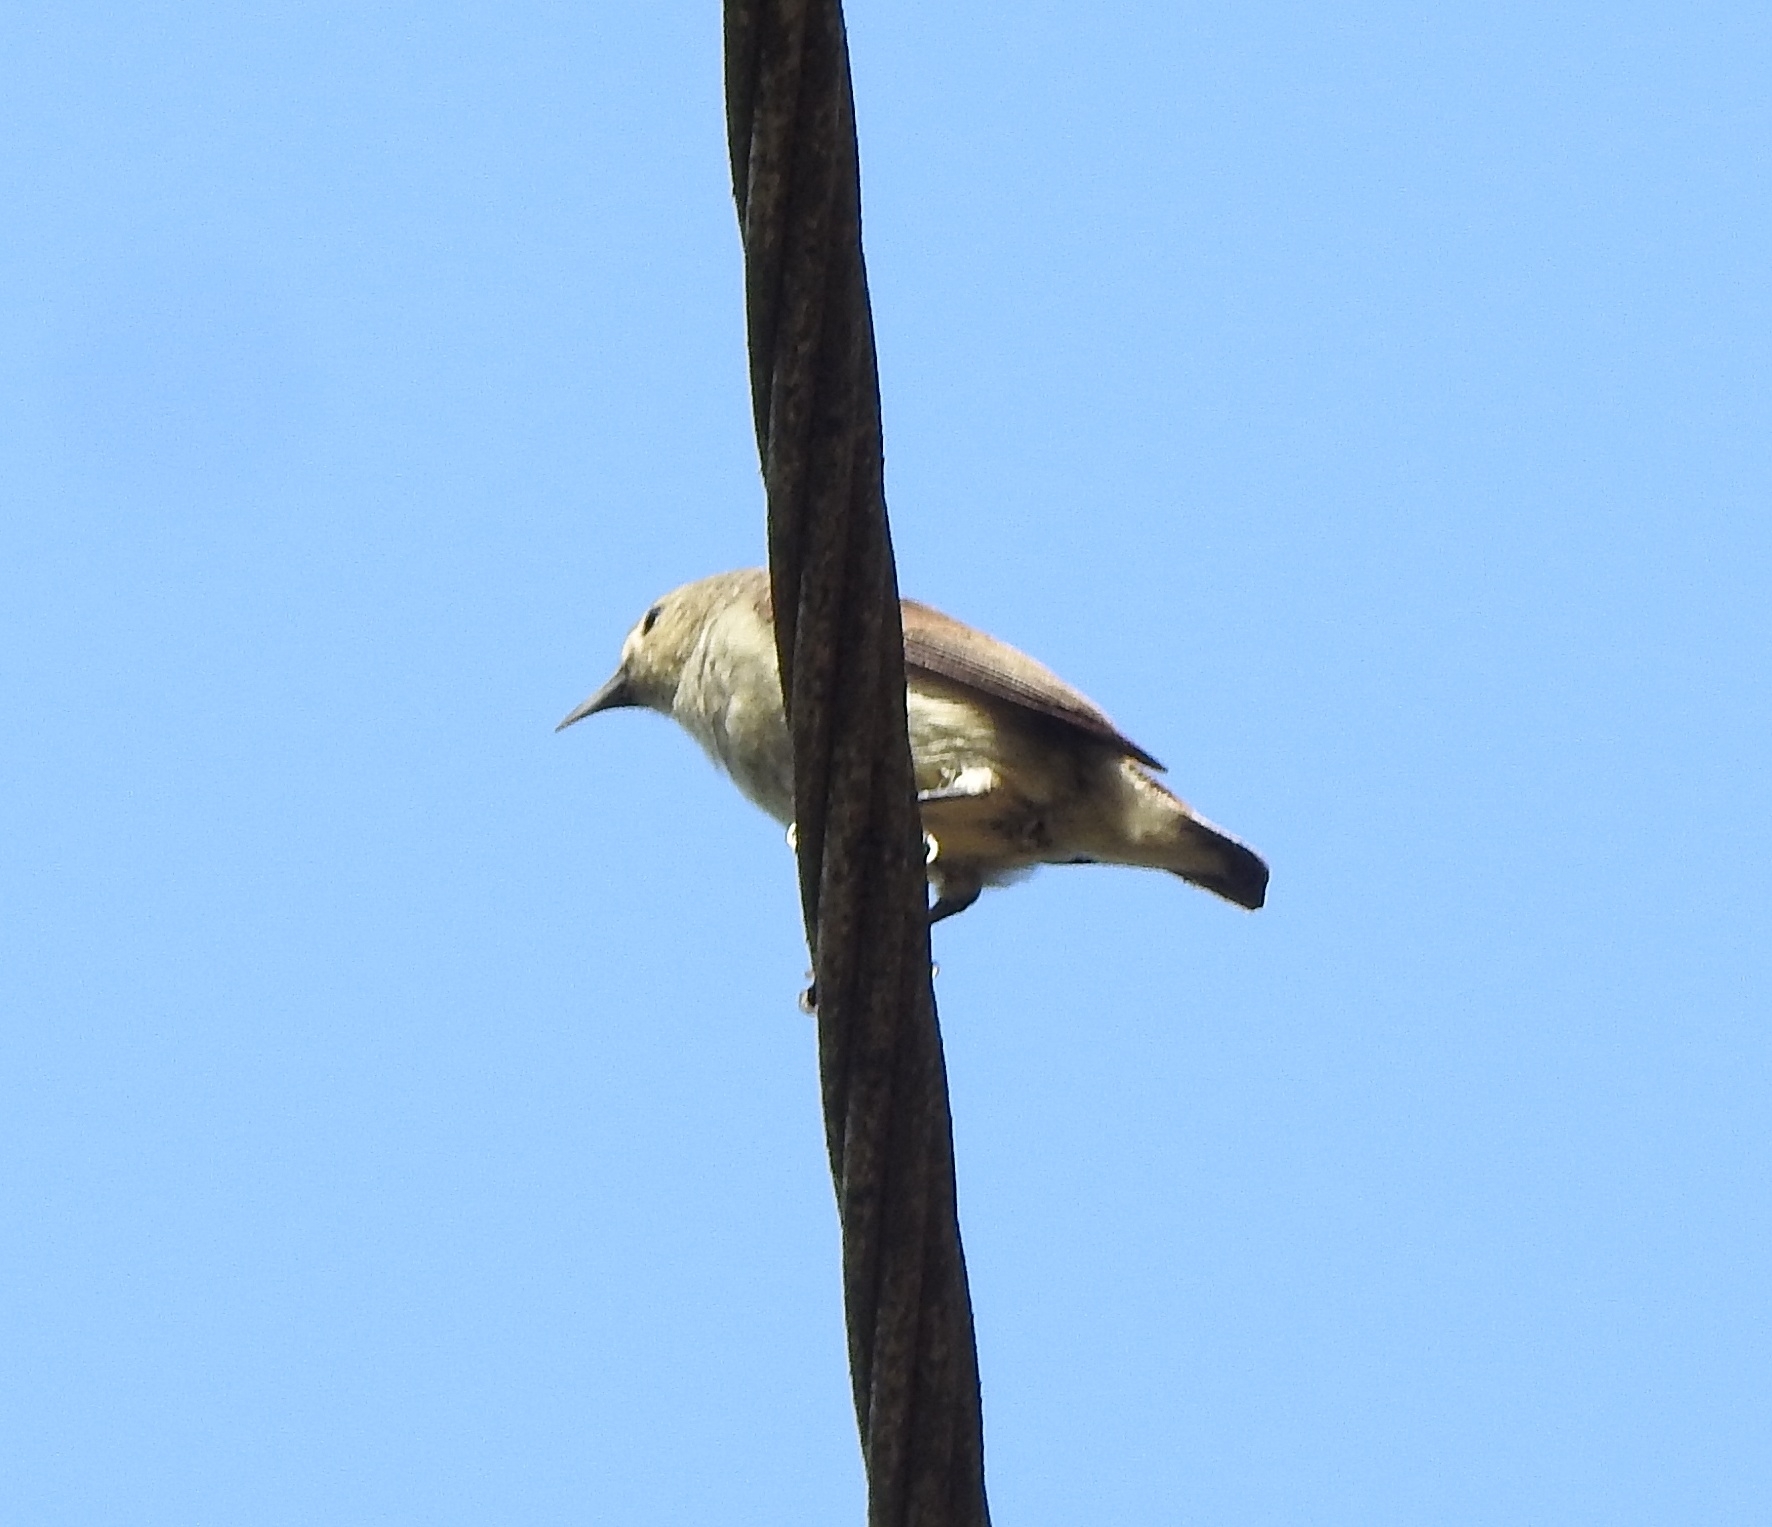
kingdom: Animalia
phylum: Chordata
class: Aves
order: Passeriformes
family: Dicaeidae
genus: Dicaeum
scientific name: Dicaeum concolor
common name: Nilgiri flowerpecker
